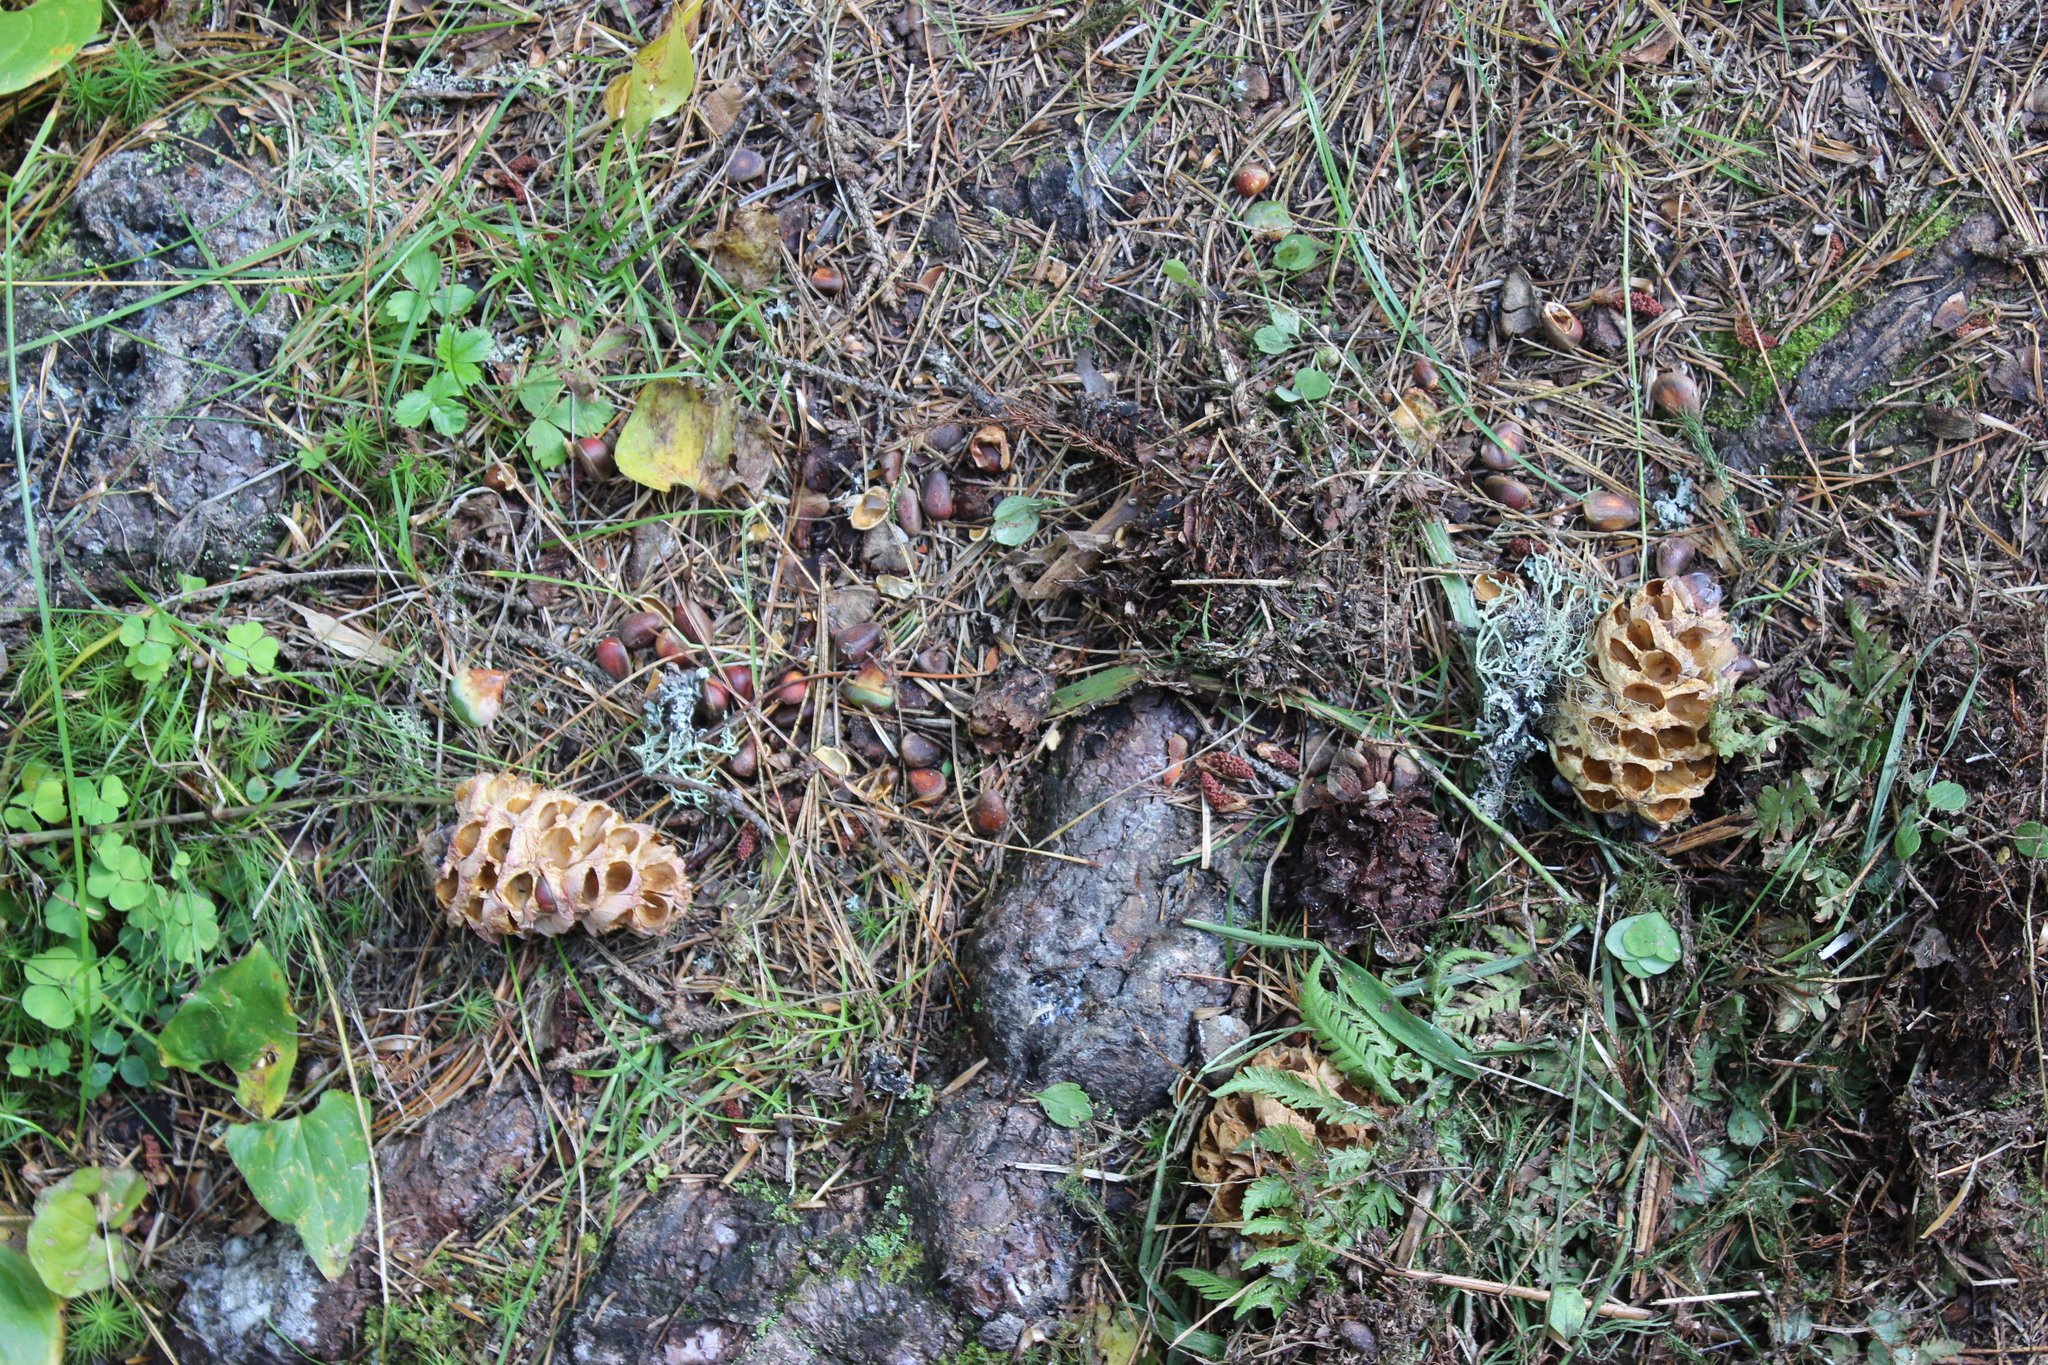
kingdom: Plantae
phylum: Tracheophyta
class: Pinopsida
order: Pinales
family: Pinaceae
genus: Pinus
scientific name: Pinus sibirica
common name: Siberian pine
